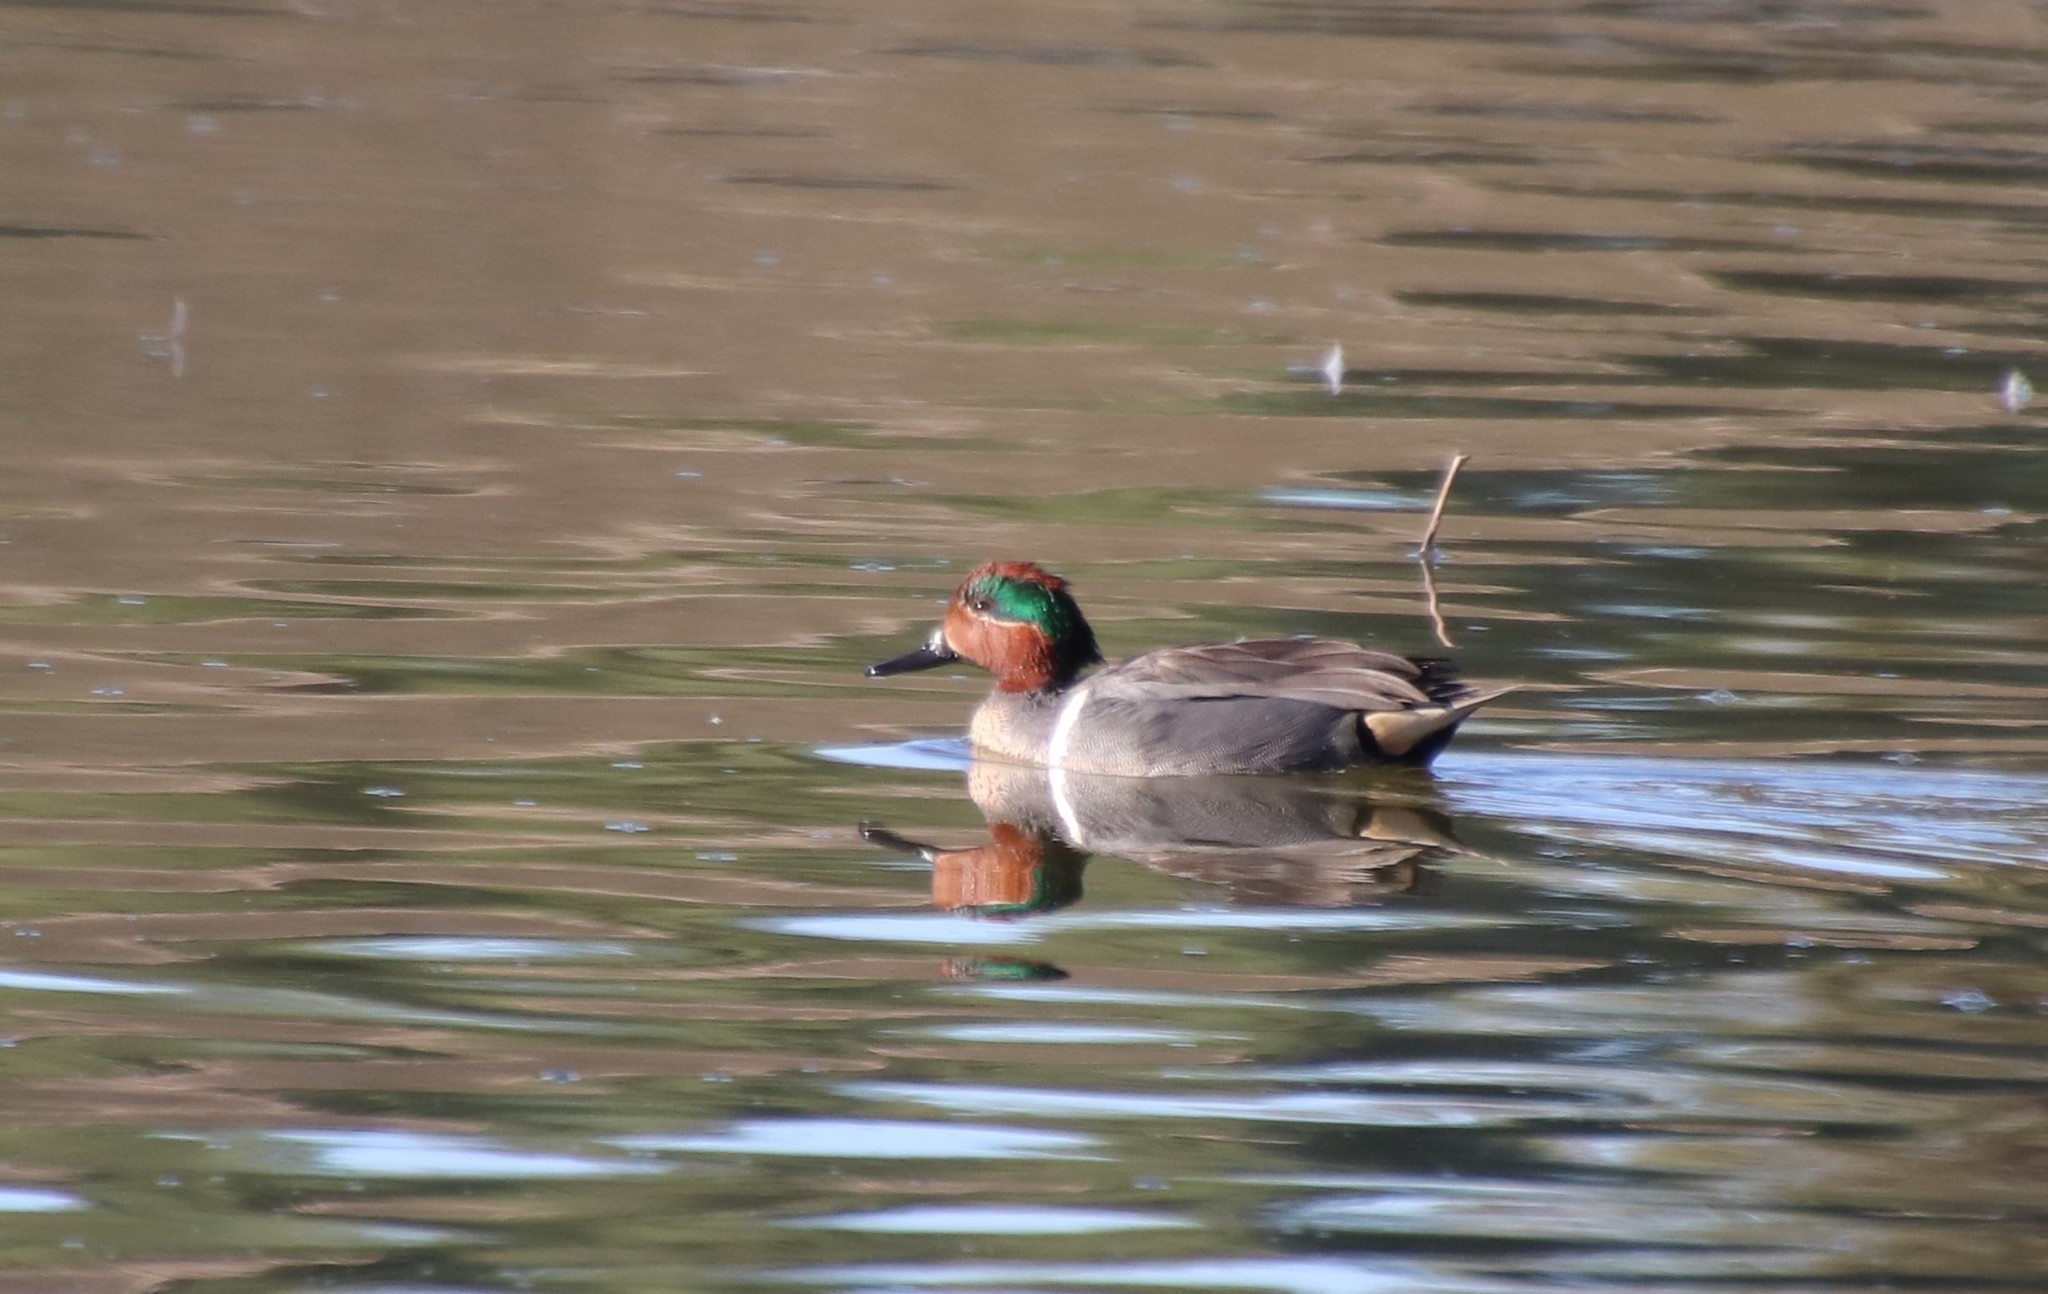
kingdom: Animalia
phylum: Chordata
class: Aves
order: Anseriformes
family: Anatidae
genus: Anas
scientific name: Anas carolinensis
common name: Green-winged teal
